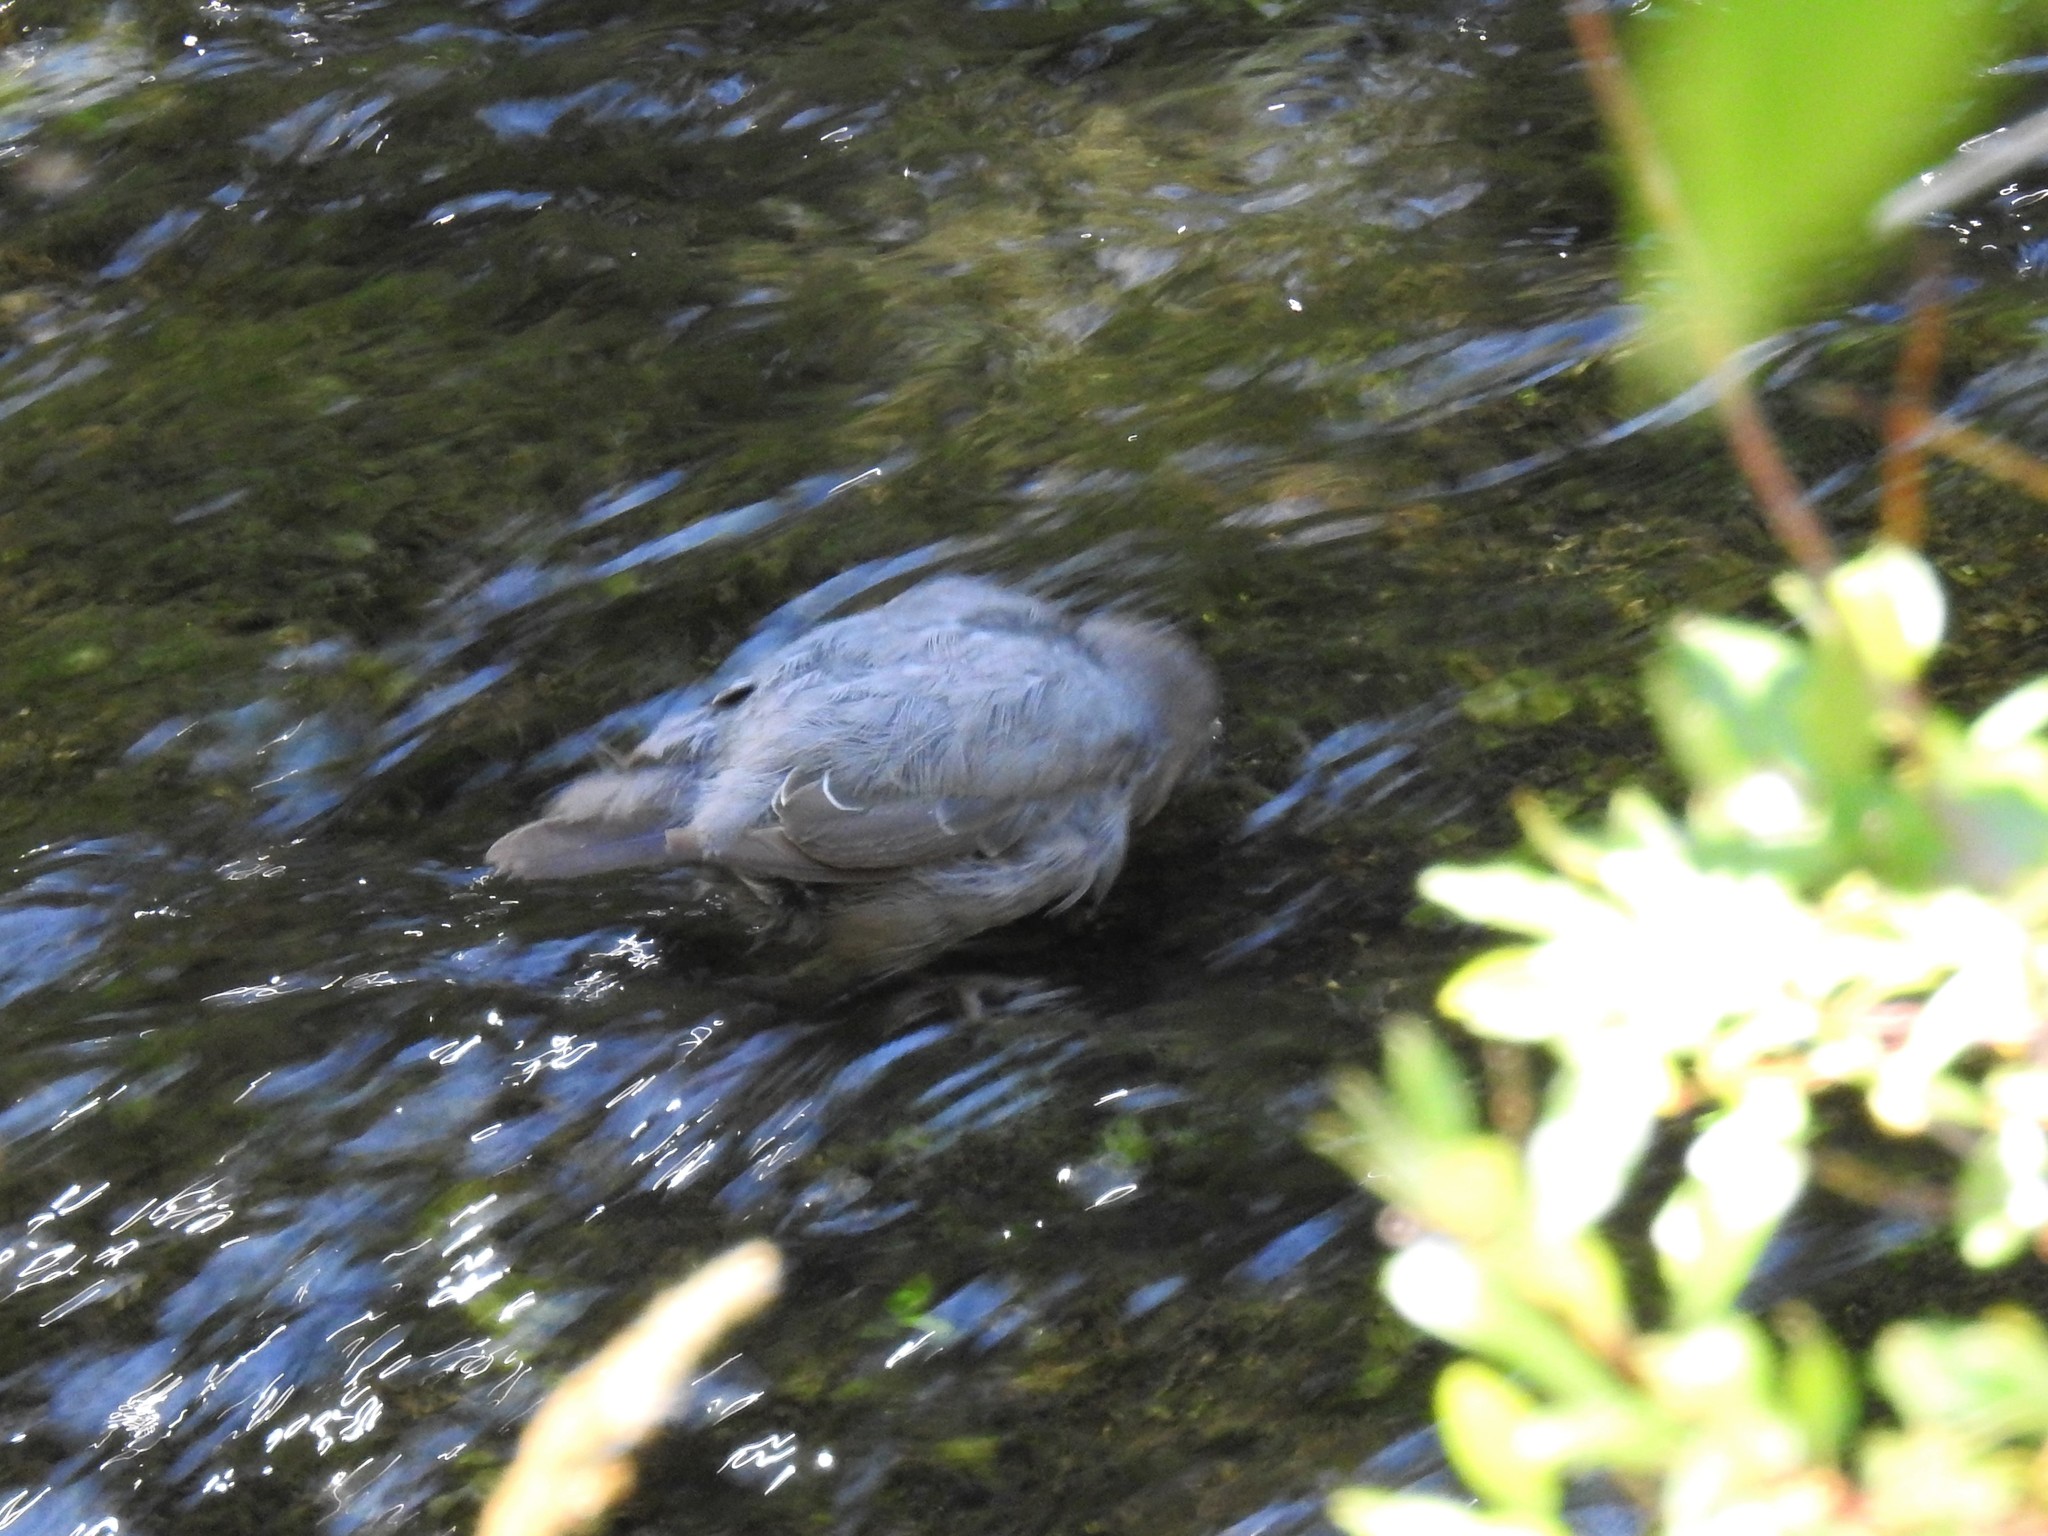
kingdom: Animalia
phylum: Chordata
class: Aves
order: Passeriformes
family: Cinclidae
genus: Cinclus
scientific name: Cinclus mexicanus
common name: American dipper
